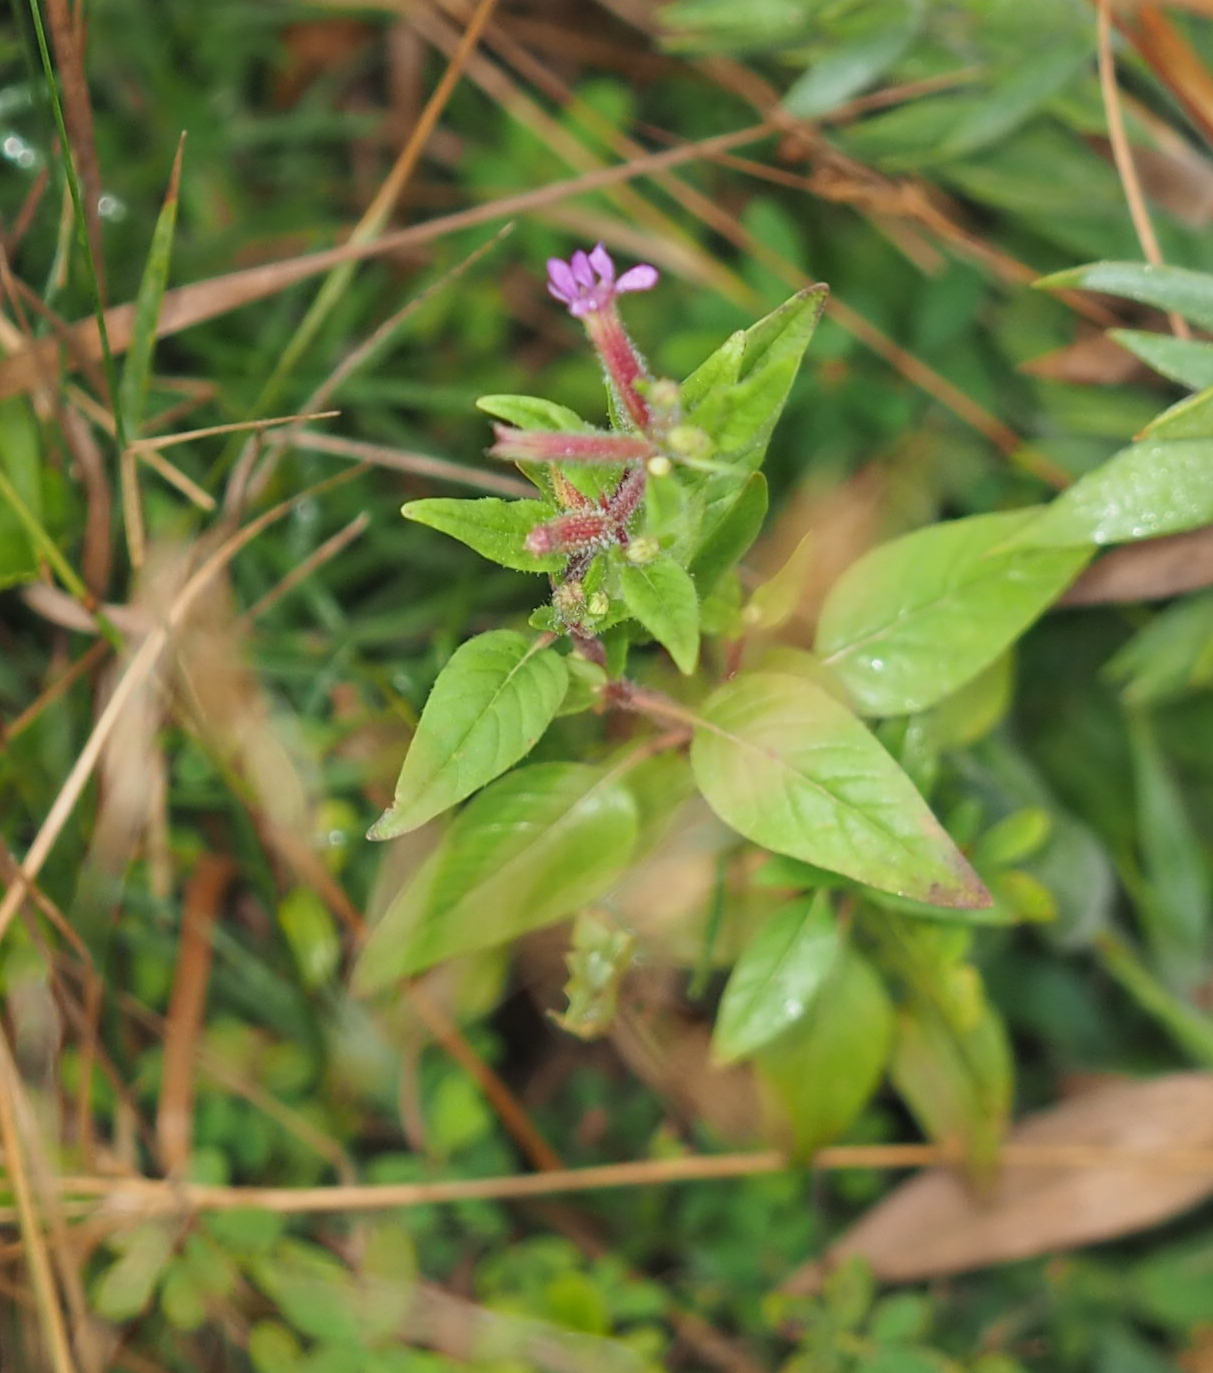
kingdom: Plantae
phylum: Tracheophyta
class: Magnoliopsida
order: Myrtales
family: Lythraceae
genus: Cuphea
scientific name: Cuphea viscosissima
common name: Clammy cuphea
